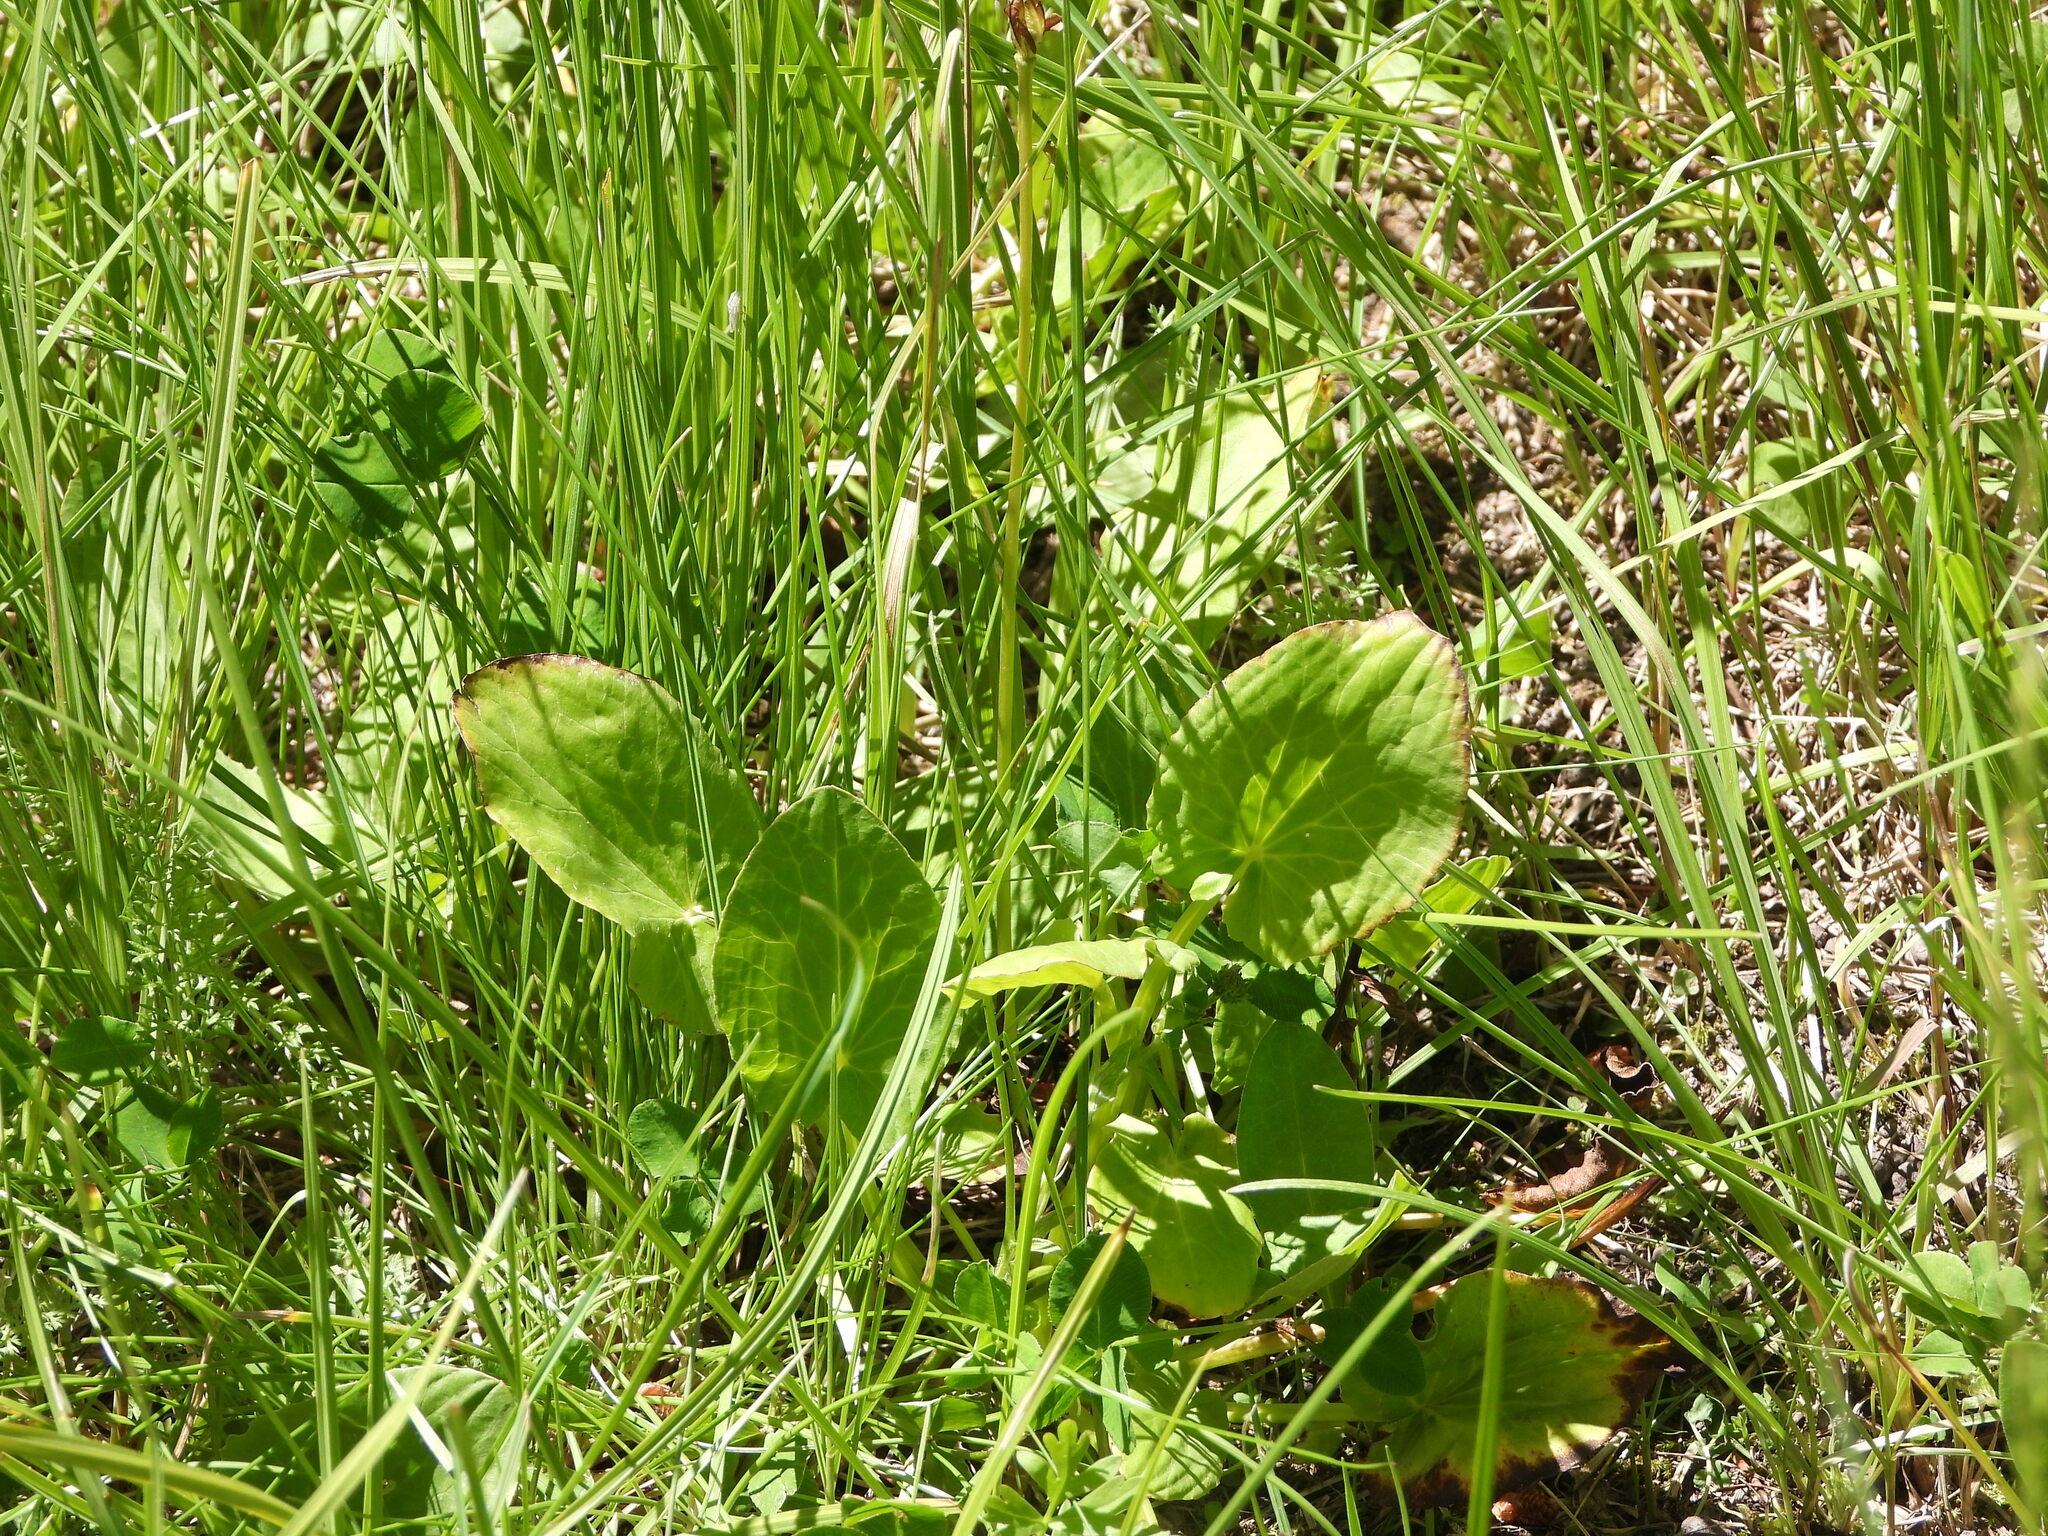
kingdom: Plantae
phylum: Tracheophyta
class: Magnoliopsida
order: Ranunculales
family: Ranunculaceae
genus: Caltha
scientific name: Caltha leptosepala
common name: Elkslip
